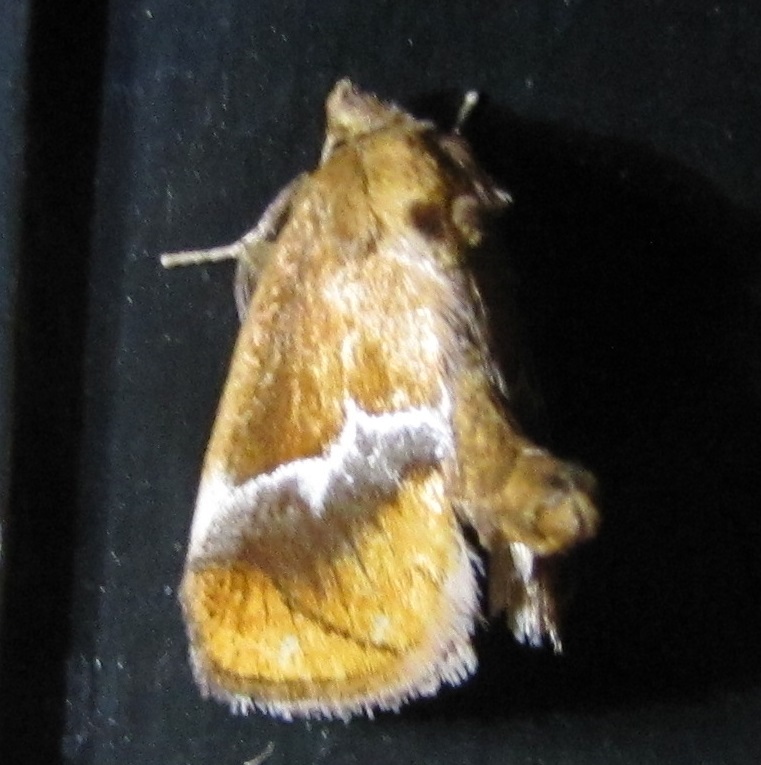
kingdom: Animalia
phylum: Arthropoda
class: Insecta
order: Lepidoptera
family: Limacodidae
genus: Lithacodes
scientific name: Lithacodes fasciola
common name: Yellow-shouldered slug moth
